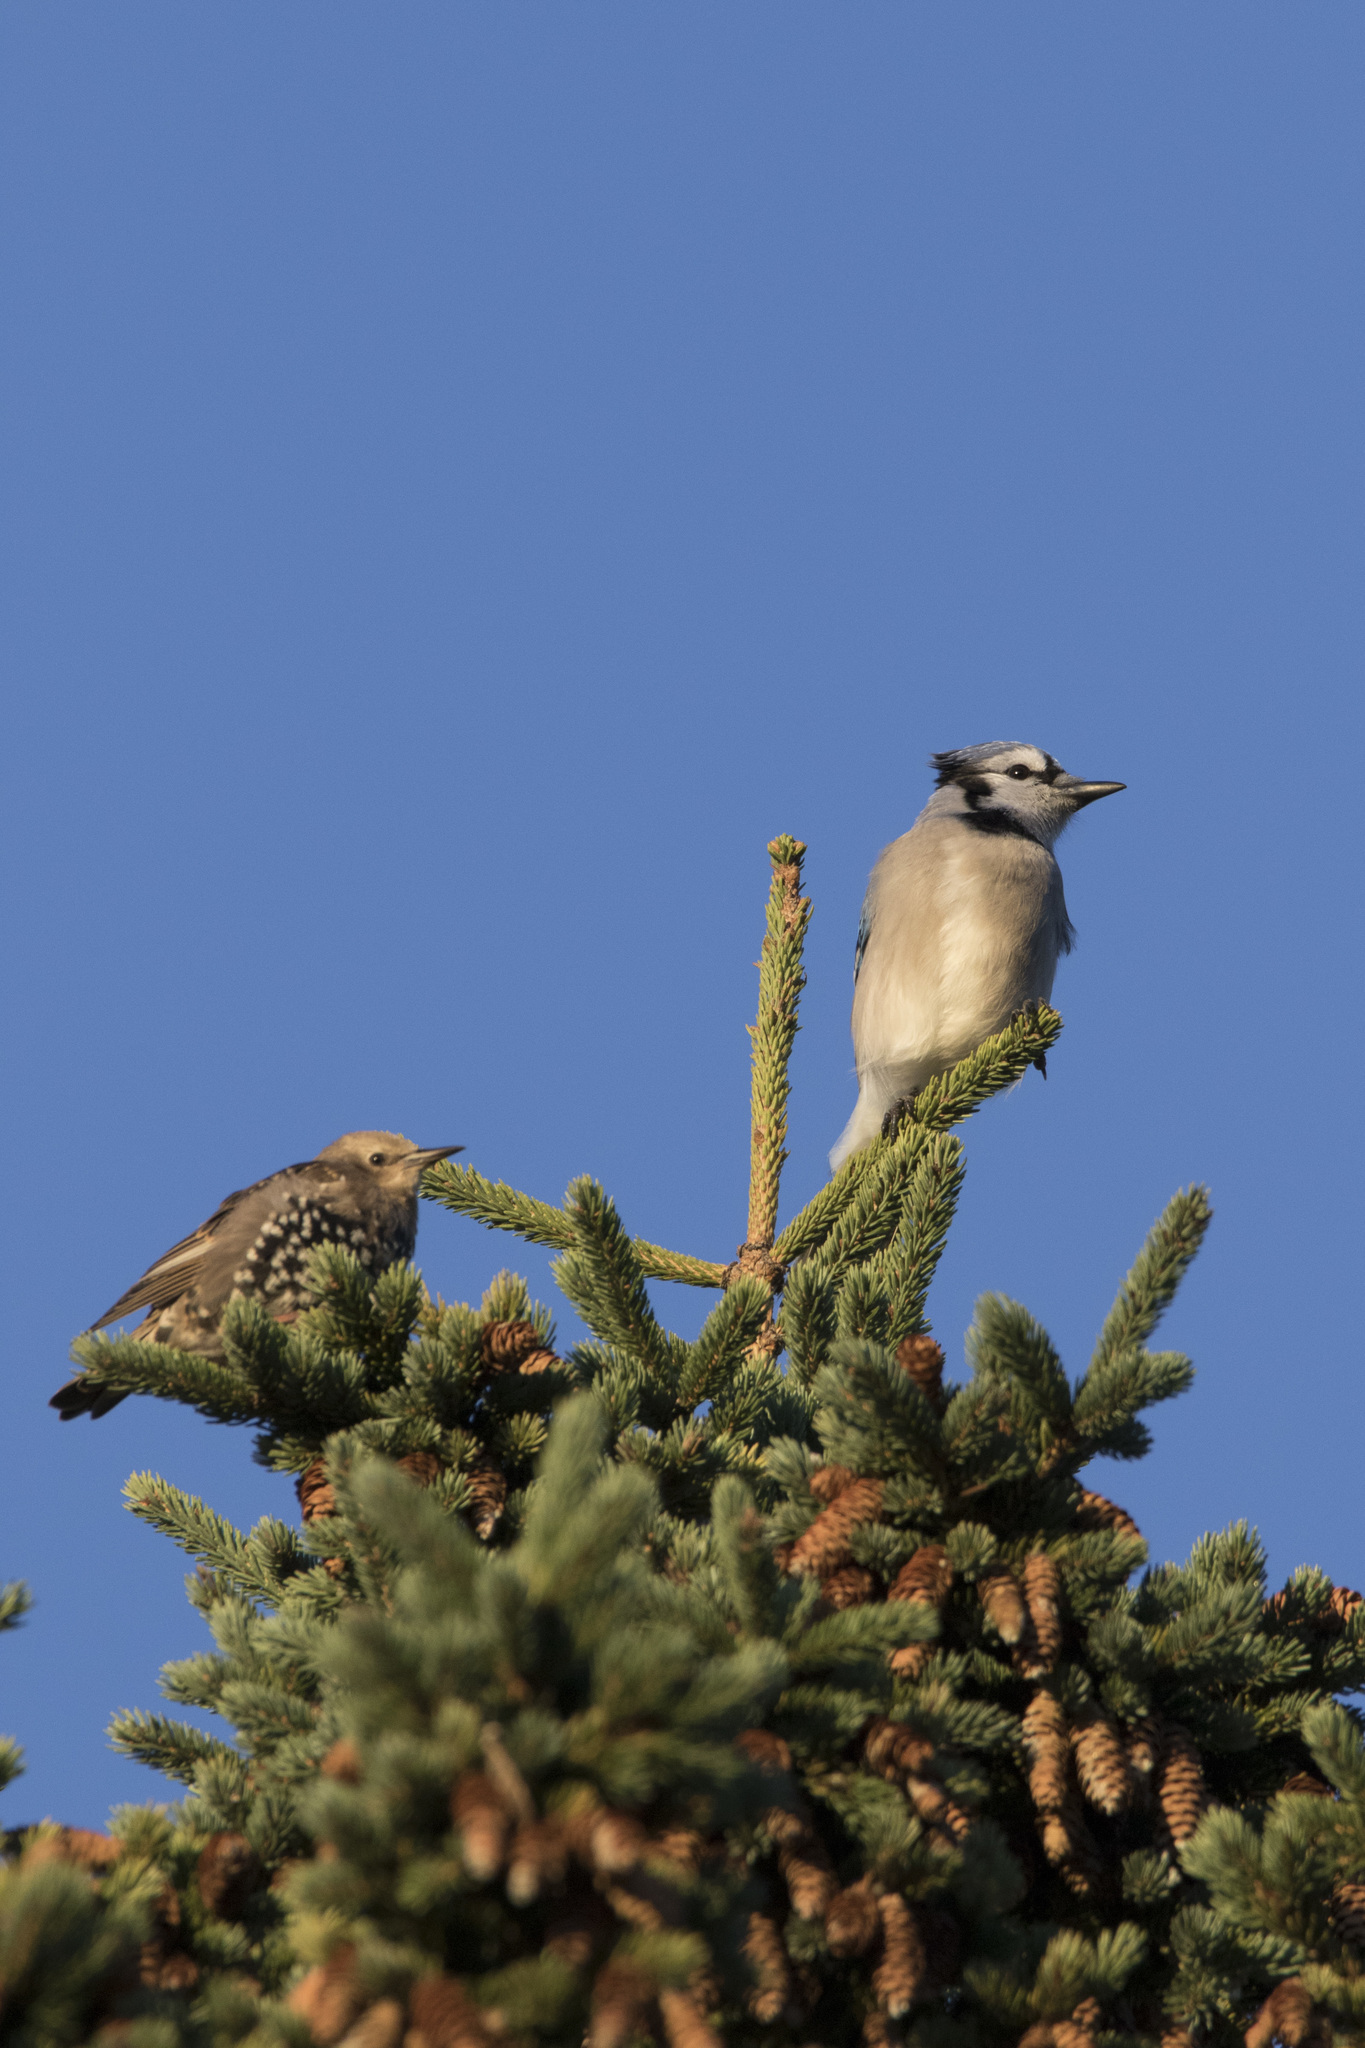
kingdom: Animalia
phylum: Chordata
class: Aves
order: Passeriformes
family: Sturnidae
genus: Sturnus
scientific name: Sturnus vulgaris
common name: Common starling
